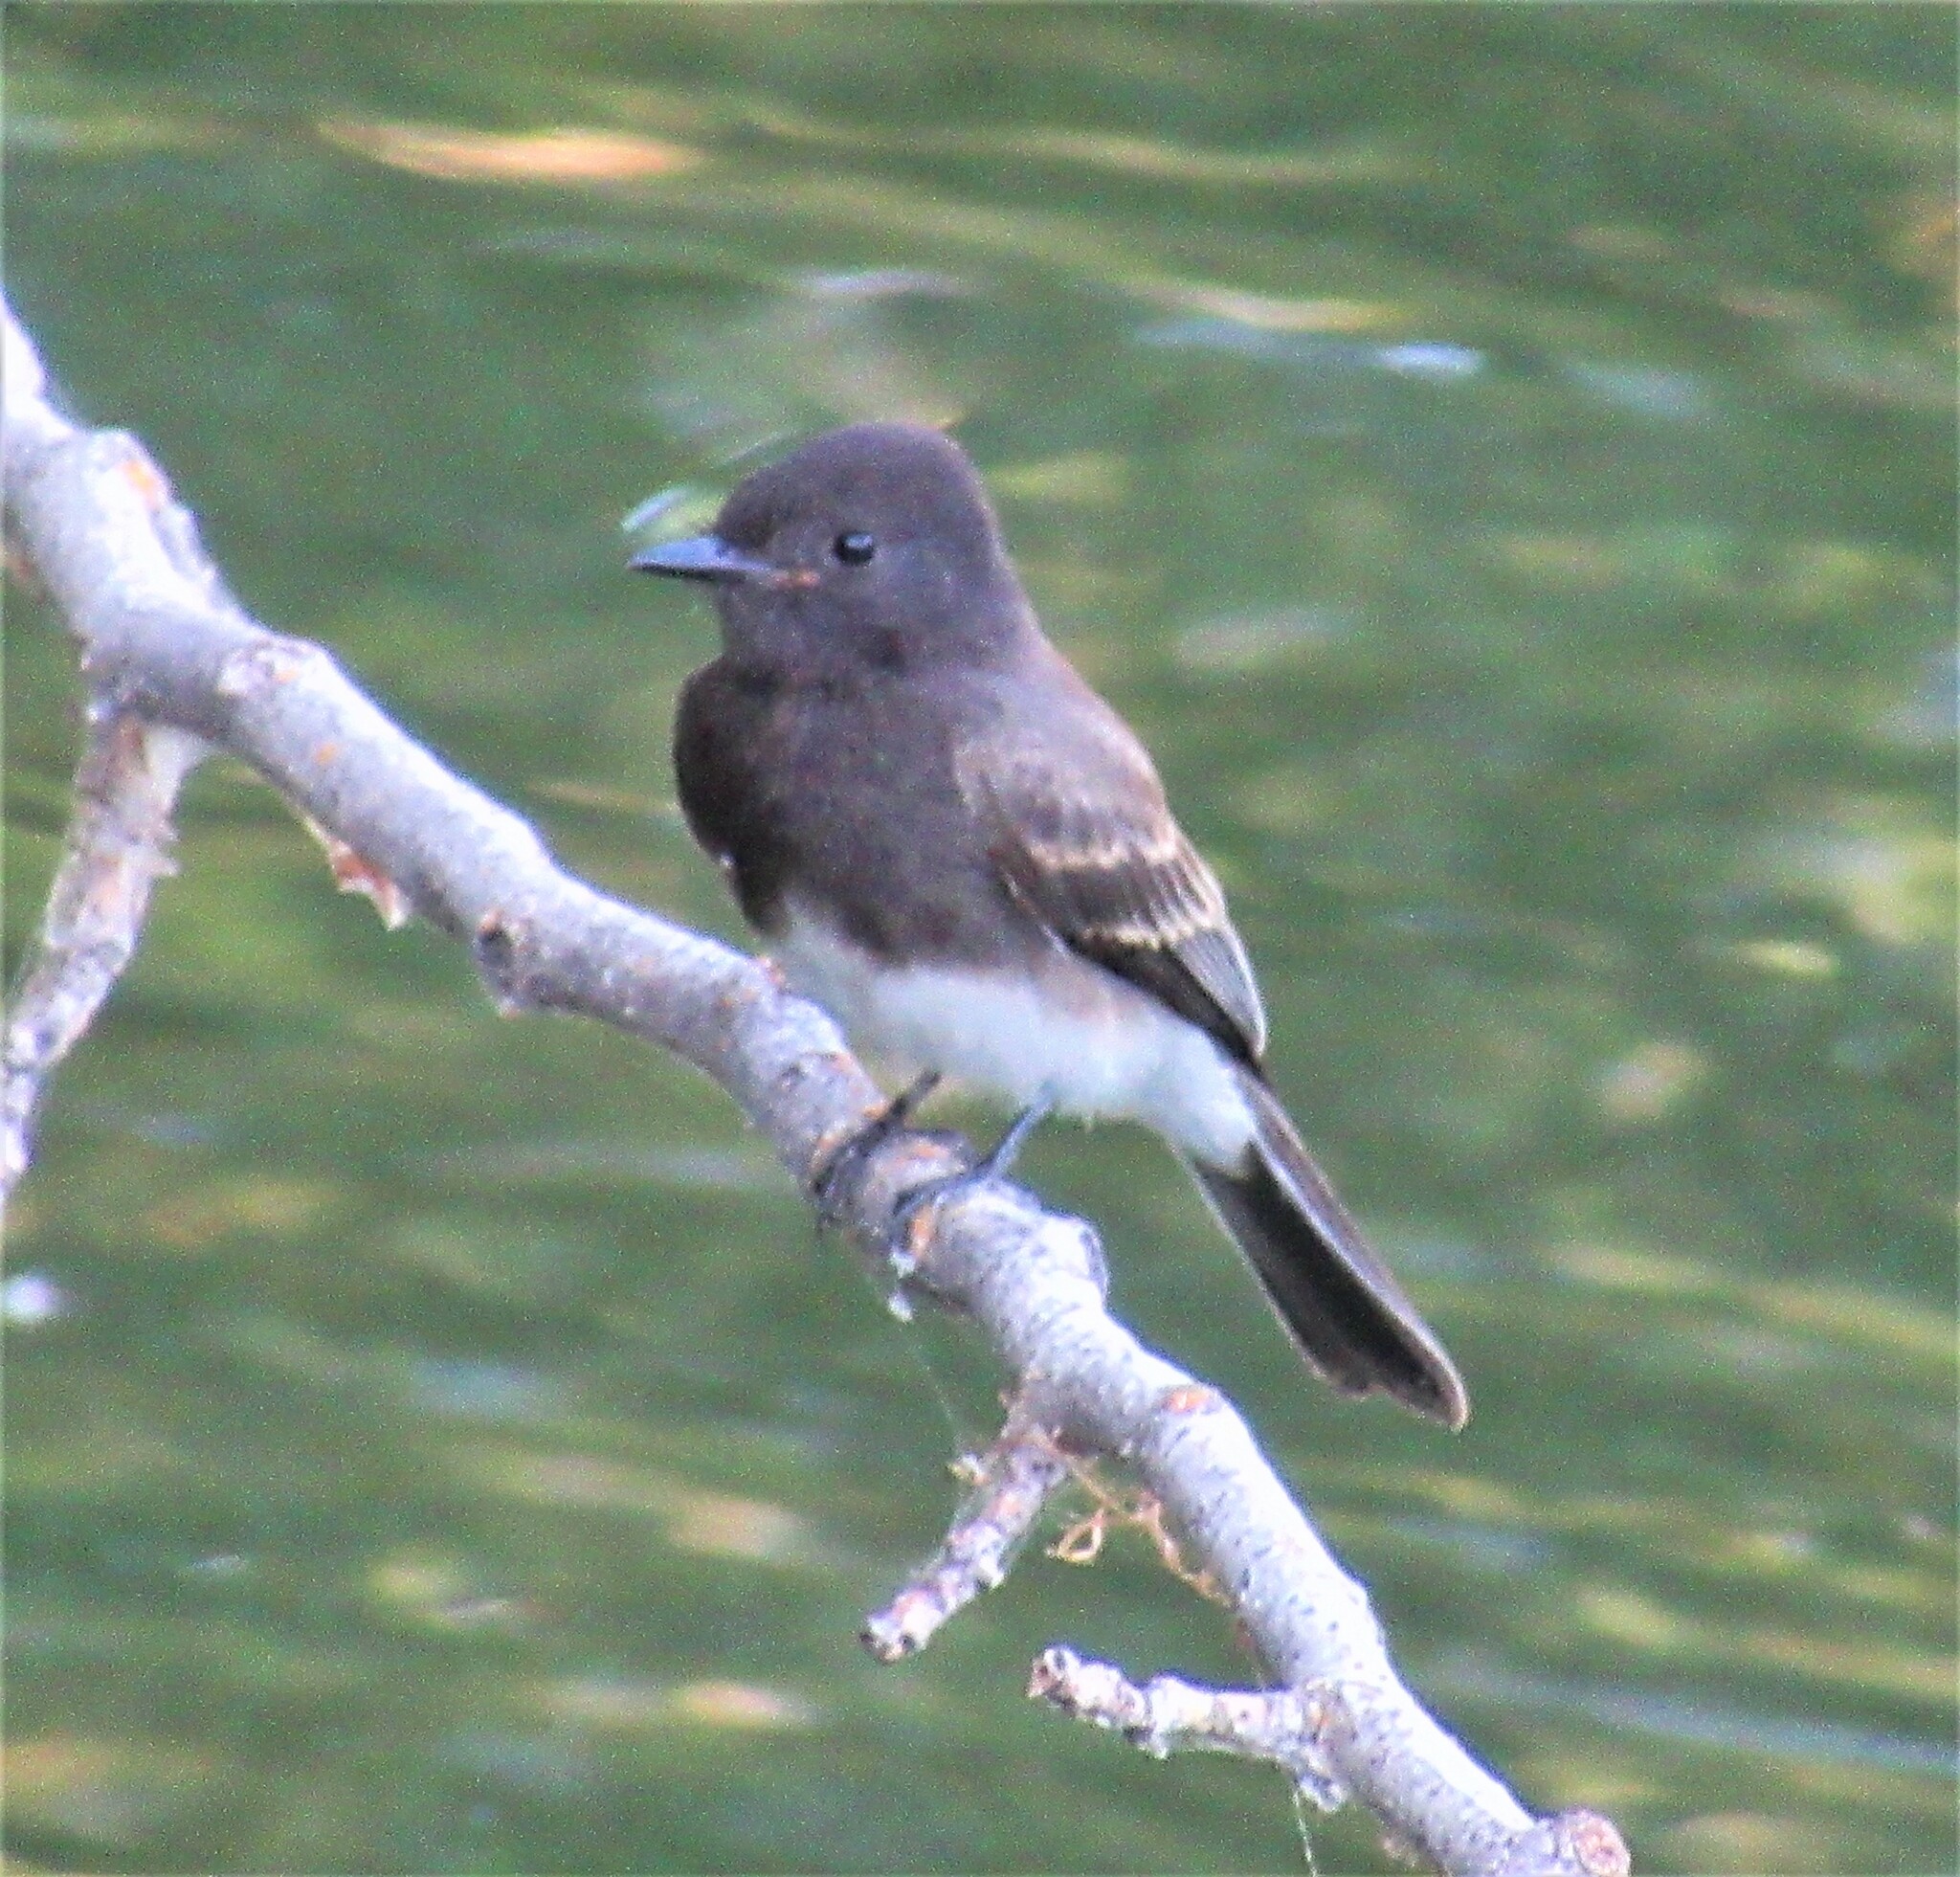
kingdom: Animalia
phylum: Chordata
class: Aves
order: Passeriformes
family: Tyrannidae
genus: Sayornis
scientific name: Sayornis nigricans
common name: Black phoebe
